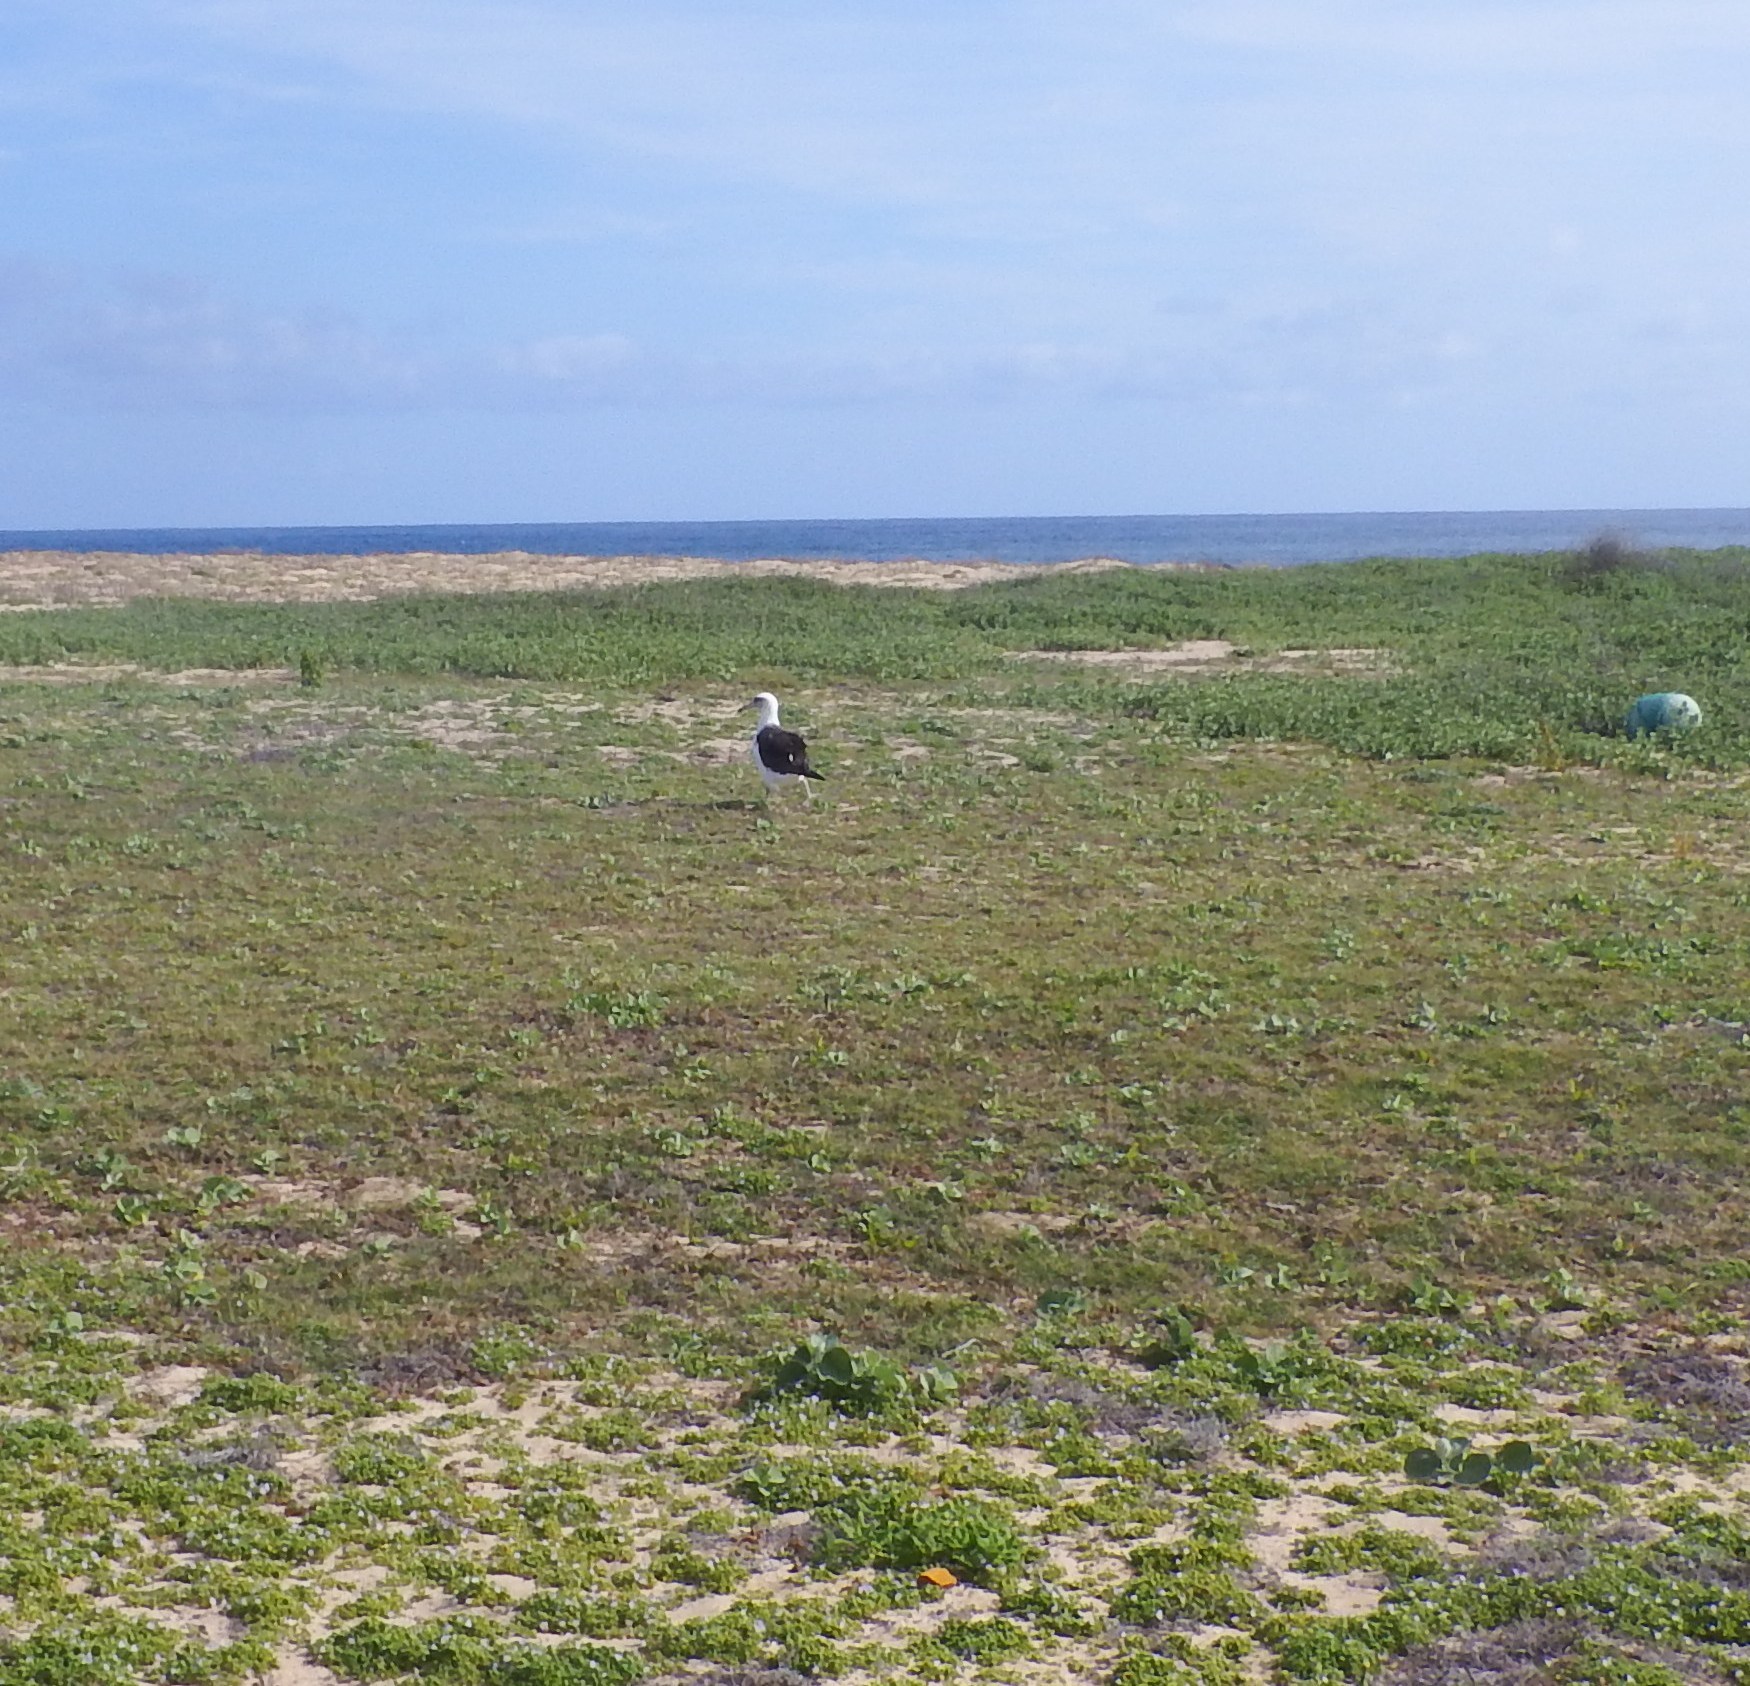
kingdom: Animalia
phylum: Chordata
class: Aves
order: Procellariiformes
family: Diomedeidae
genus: Phoebastria
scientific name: Phoebastria immutabilis
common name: Laysan albatross
